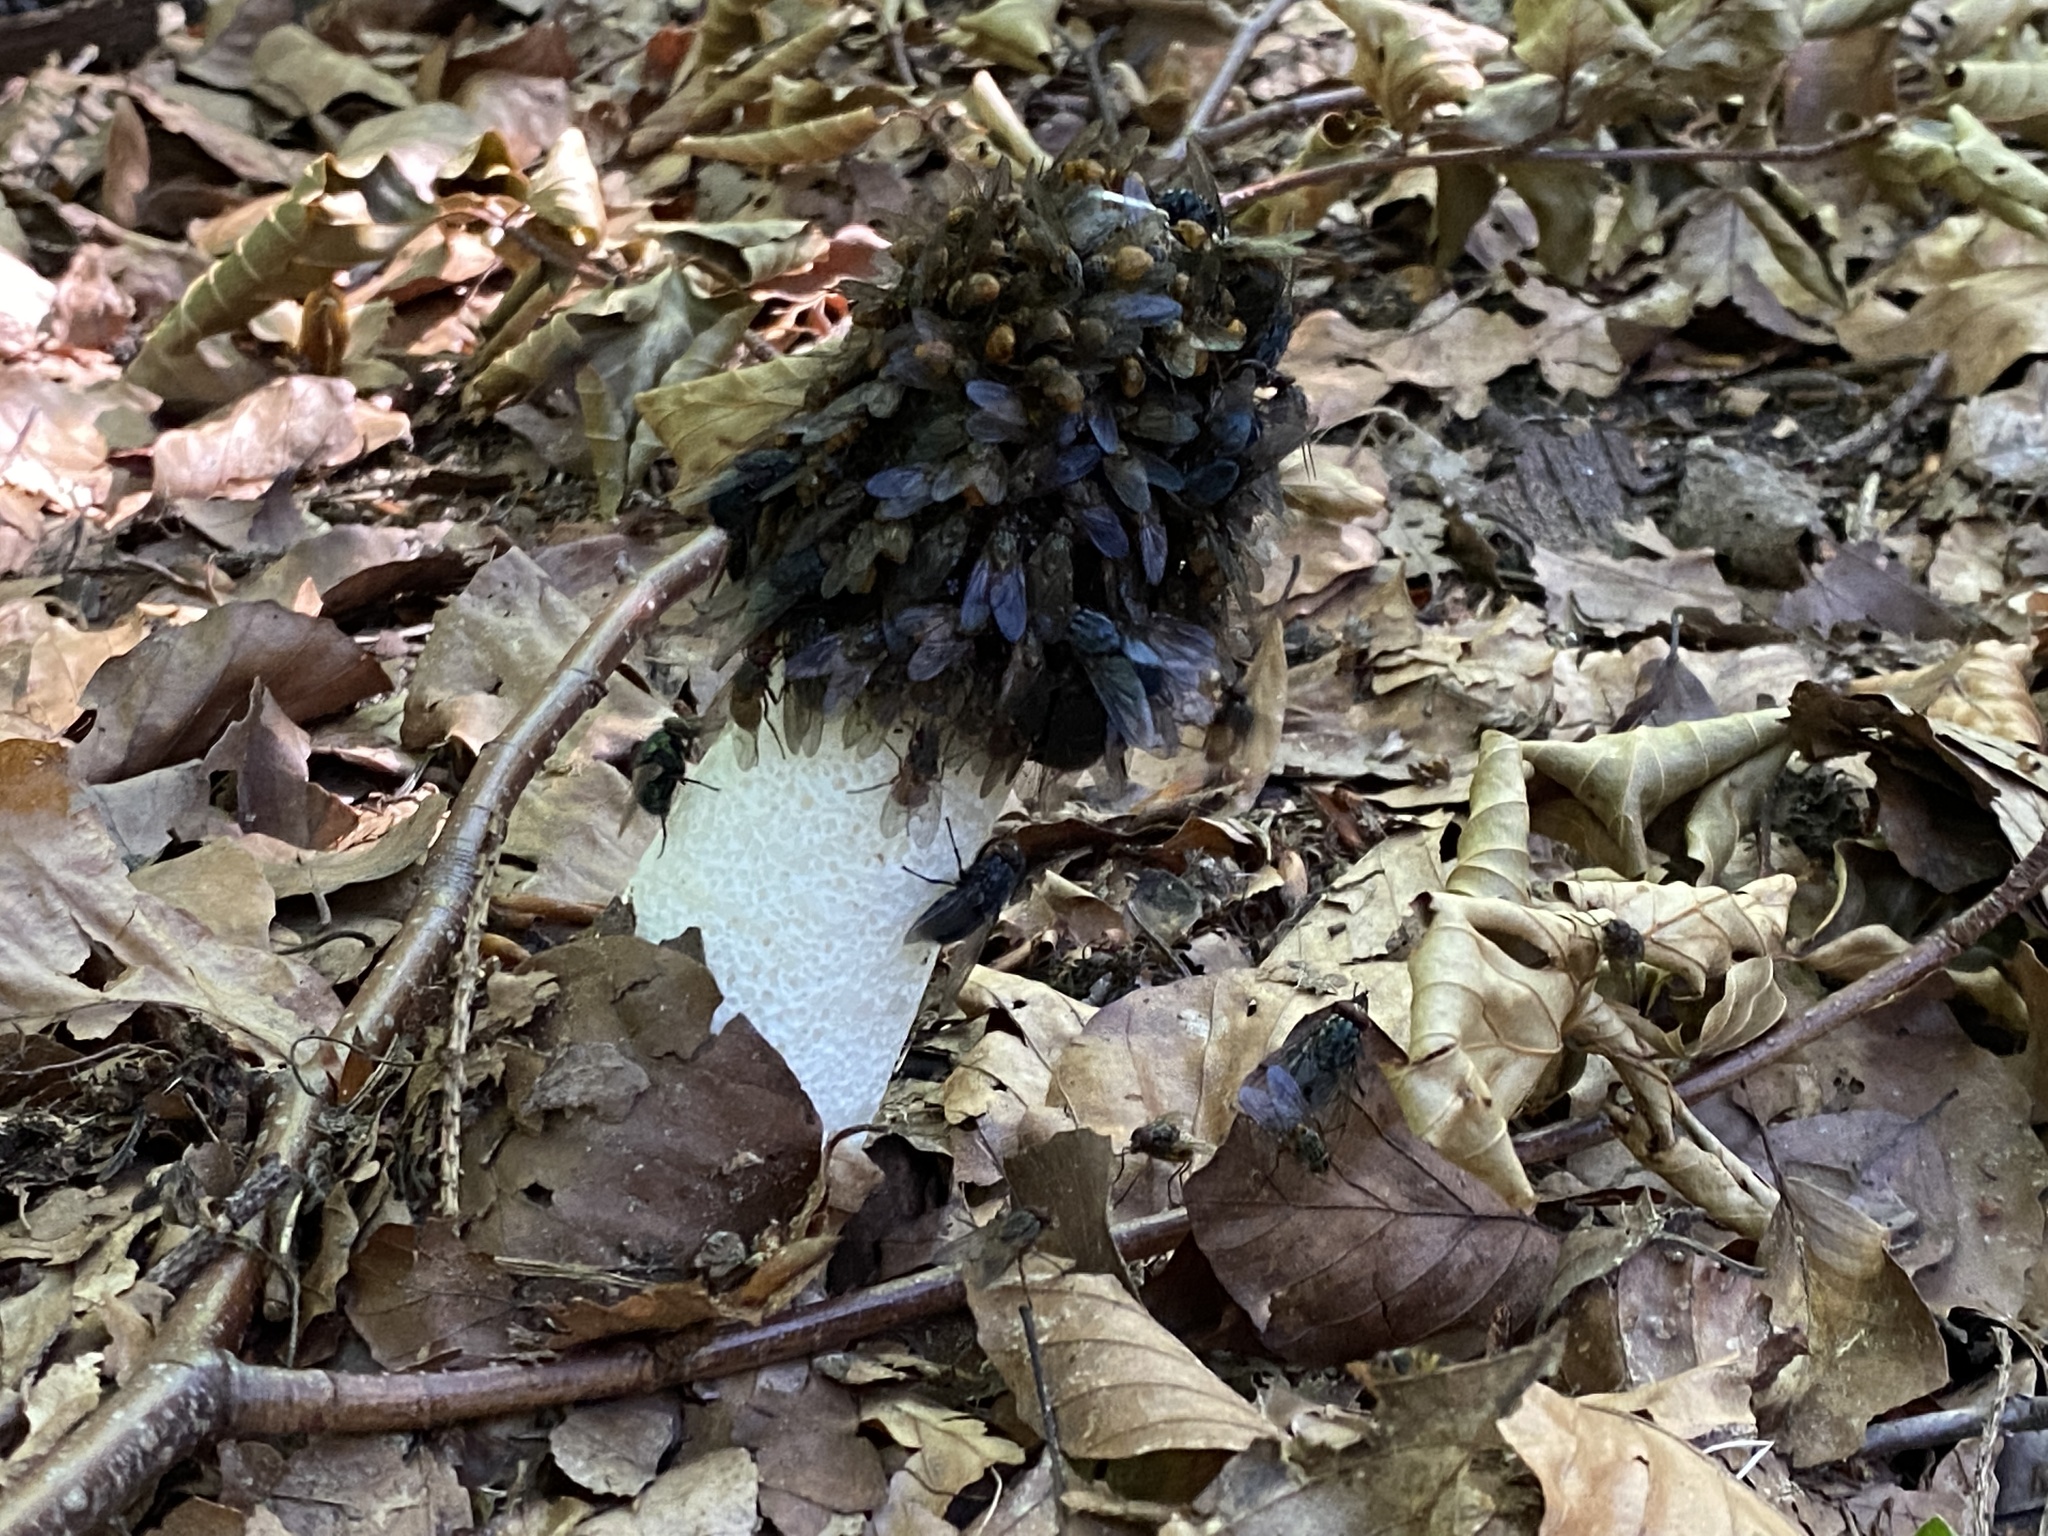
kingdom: Fungi
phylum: Basidiomycota
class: Agaricomycetes
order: Phallales
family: Phallaceae
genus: Phallus
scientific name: Phallus impudicus
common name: Common stinkhorn
